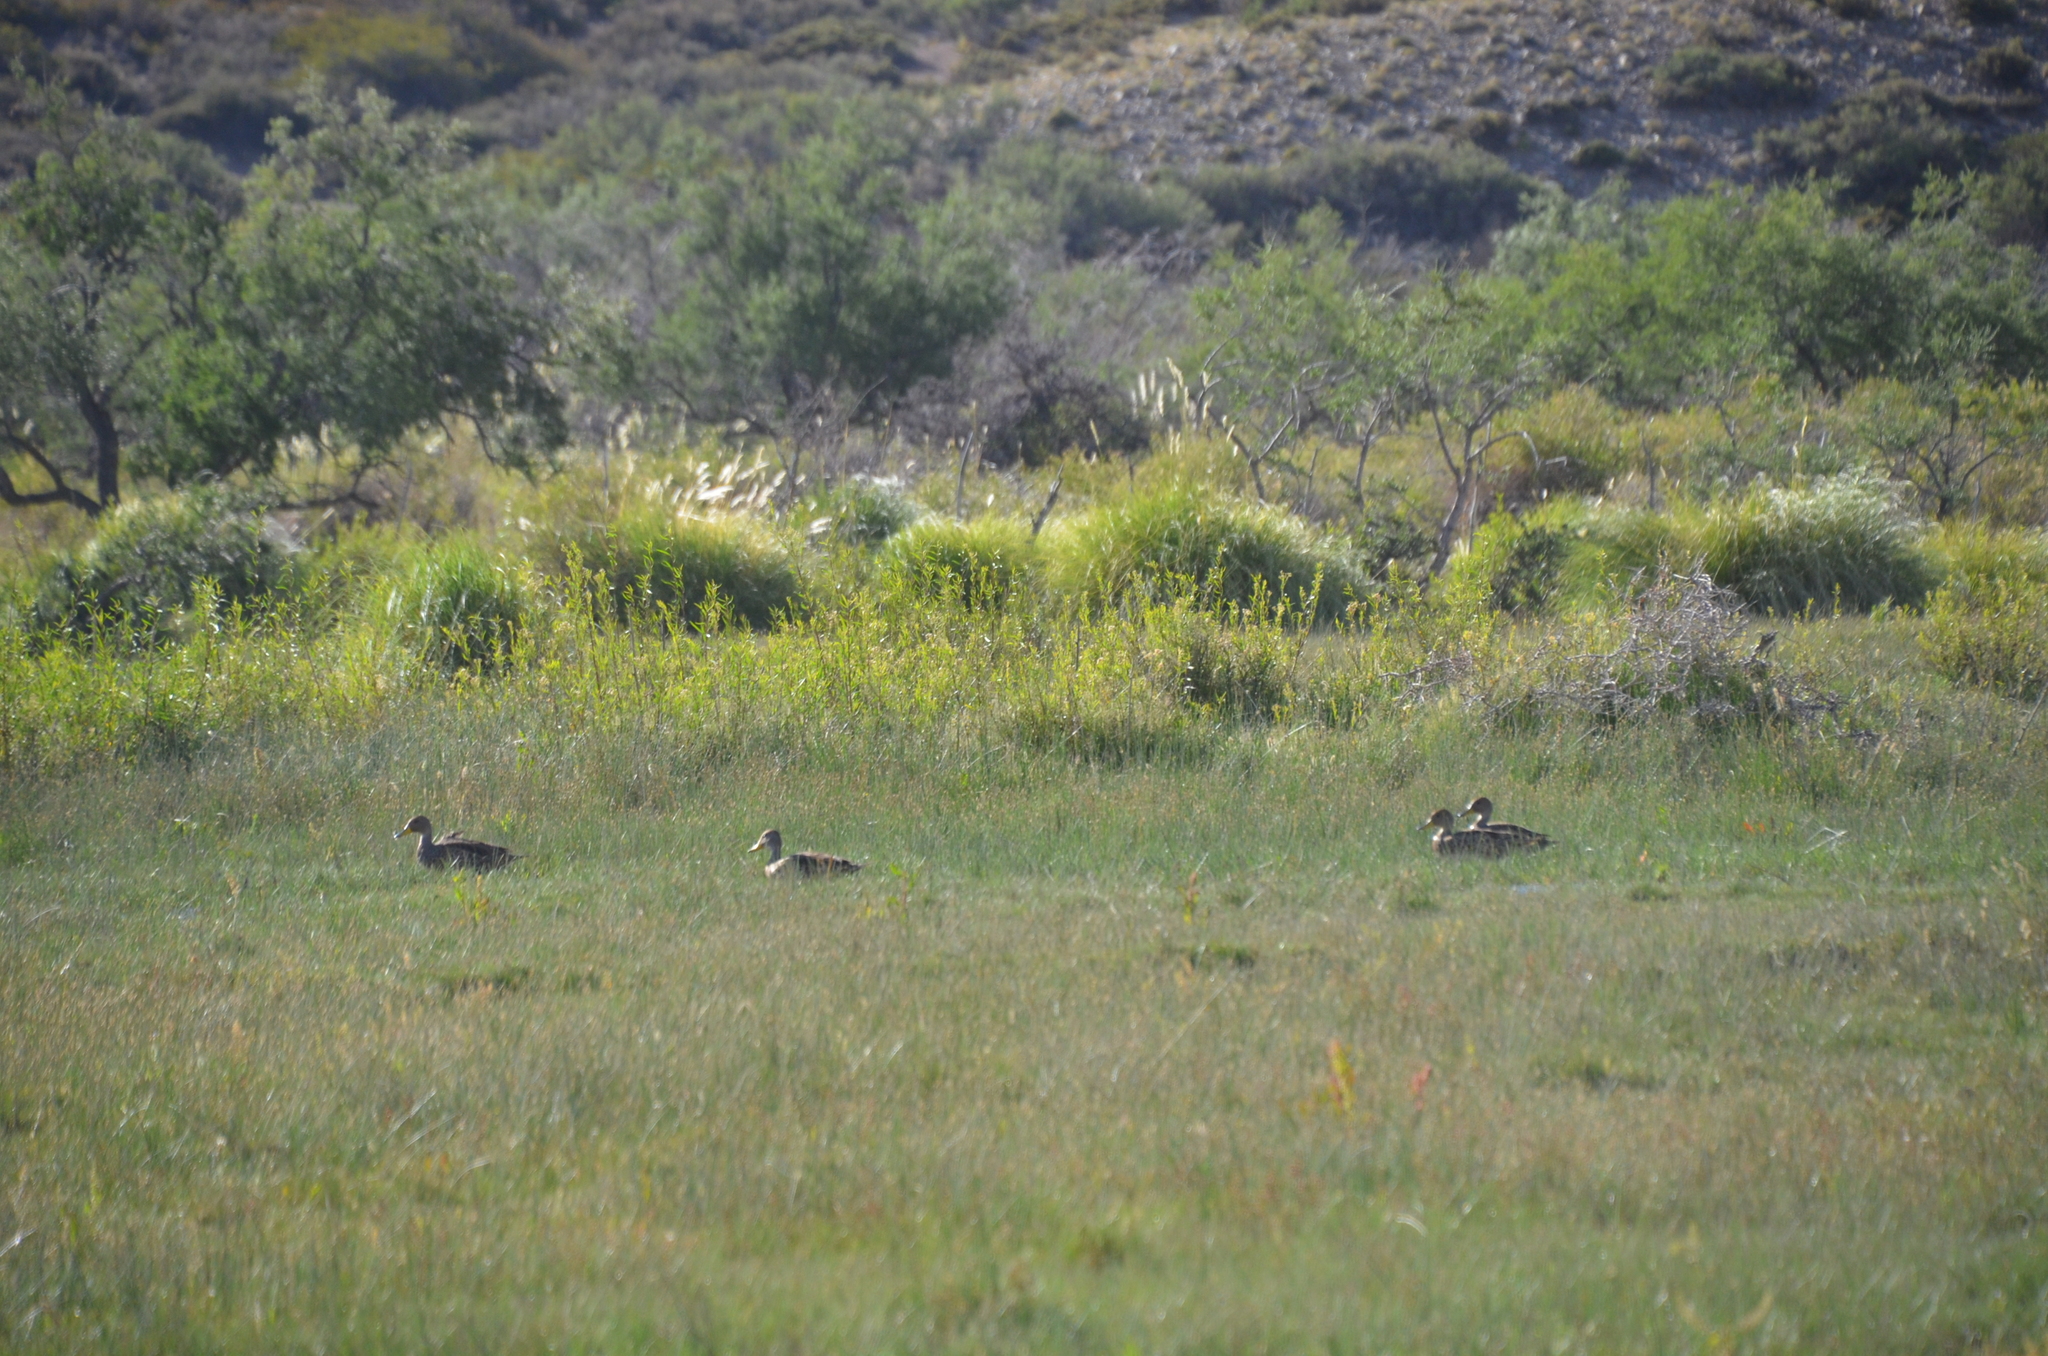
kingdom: Animalia
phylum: Chordata
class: Aves
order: Anseriformes
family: Anatidae
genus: Anas
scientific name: Anas georgica
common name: Yellow-billed pintail
